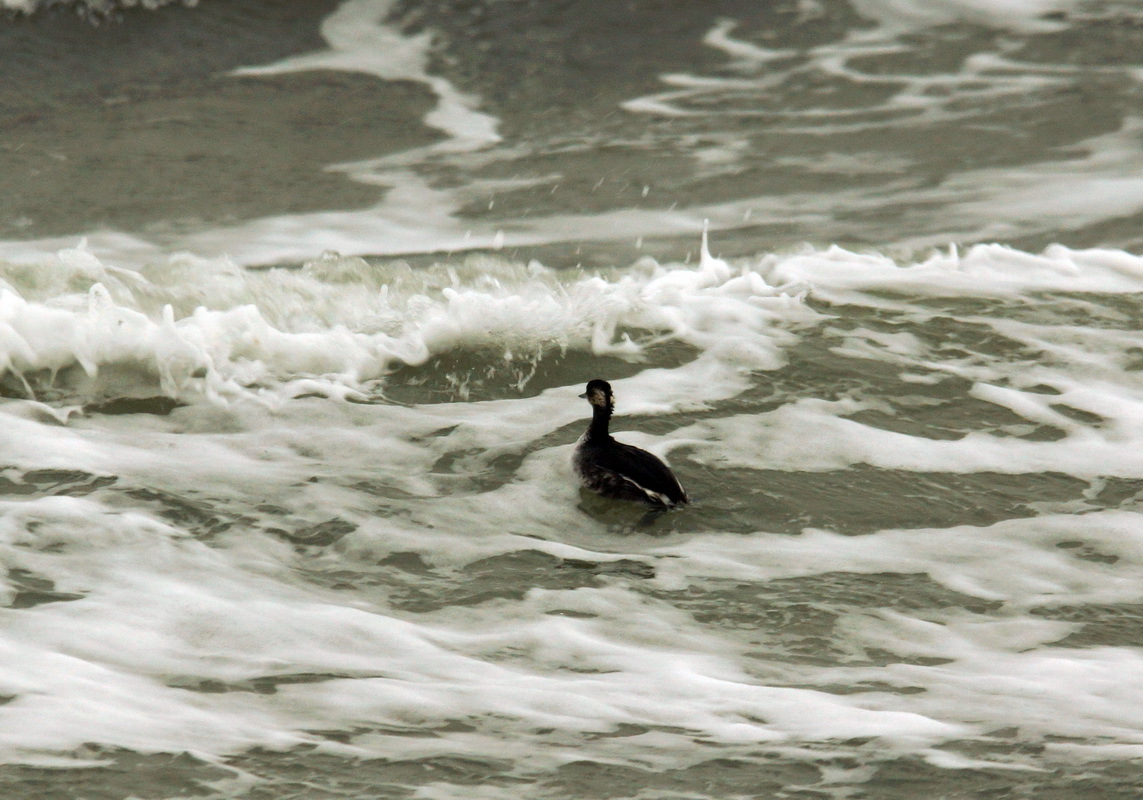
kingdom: Animalia
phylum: Chordata
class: Aves
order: Podicipediformes
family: Podicipedidae
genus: Podiceps
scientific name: Podiceps nigricollis
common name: Black-necked grebe
